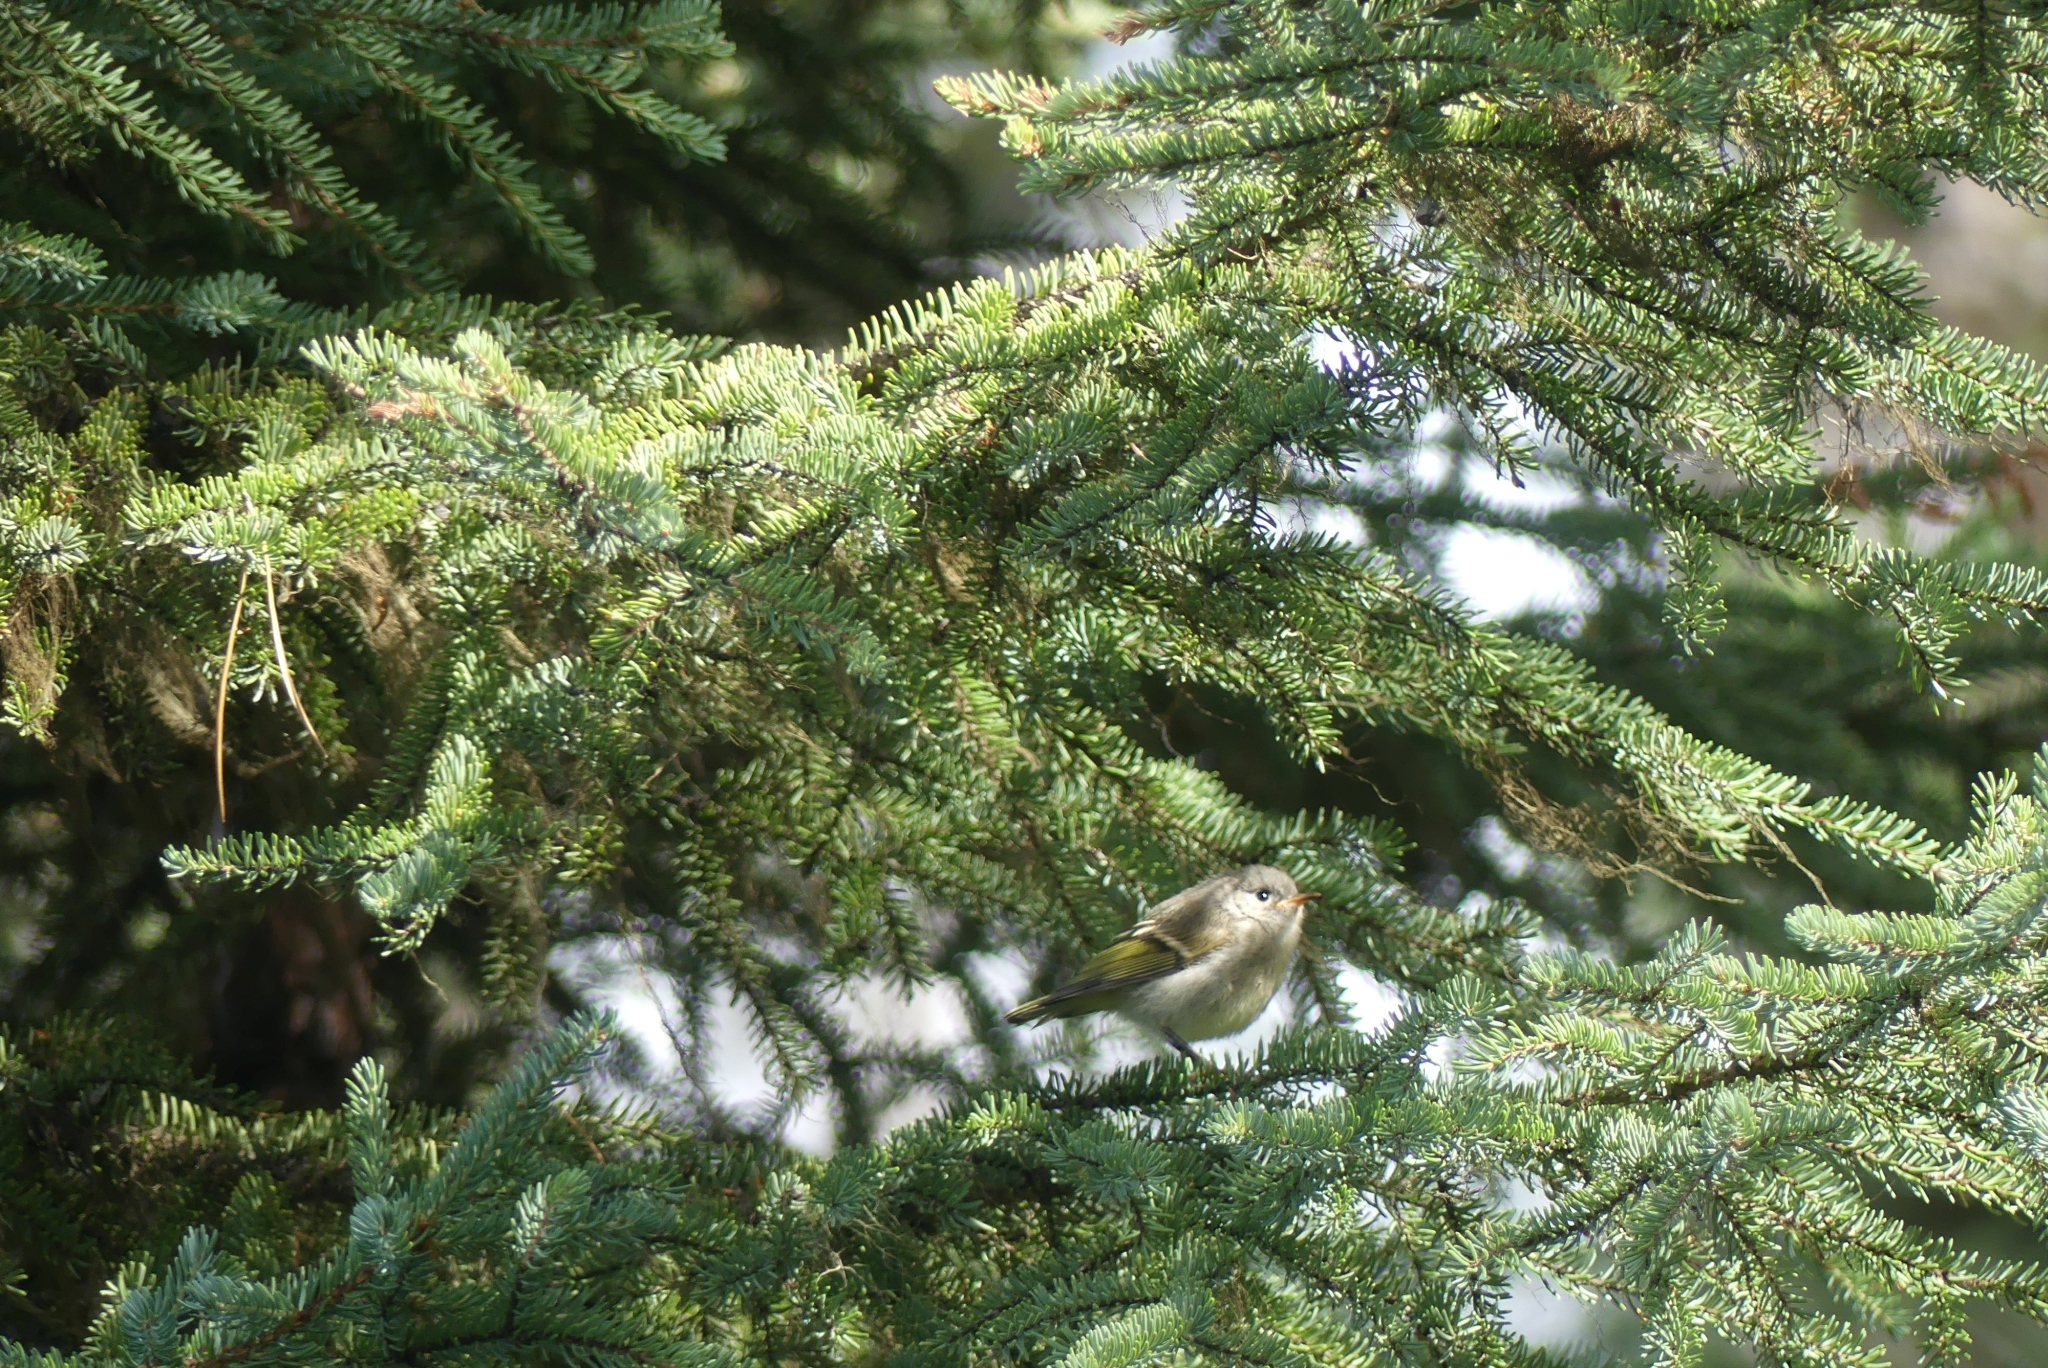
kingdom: Animalia
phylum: Chordata
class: Aves
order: Passeriformes
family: Regulidae
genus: Regulus
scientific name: Regulus calendula
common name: Ruby-crowned kinglet
